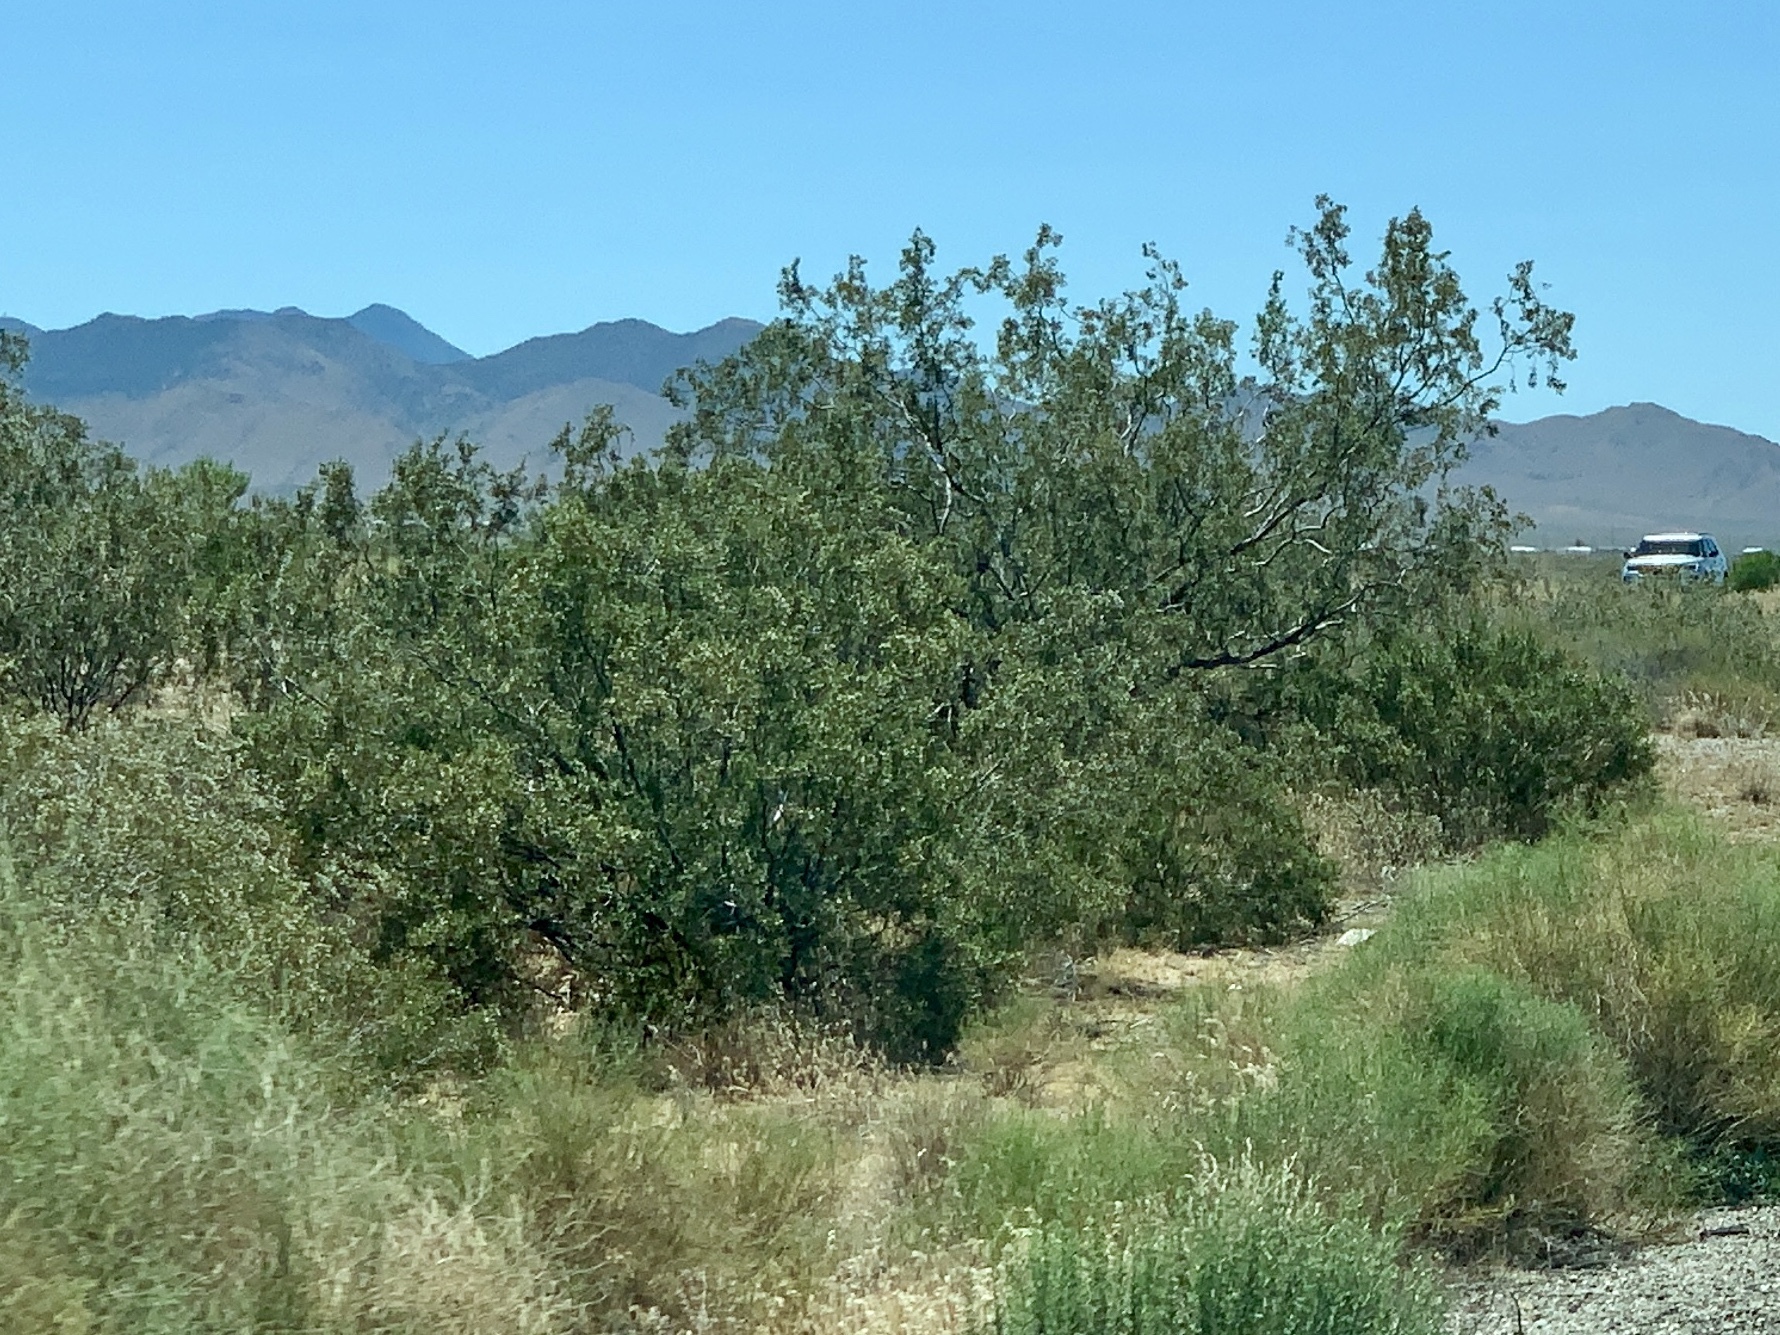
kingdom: Plantae
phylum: Tracheophyta
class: Magnoliopsida
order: Zygophyllales
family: Zygophyllaceae
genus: Larrea
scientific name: Larrea tridentata
